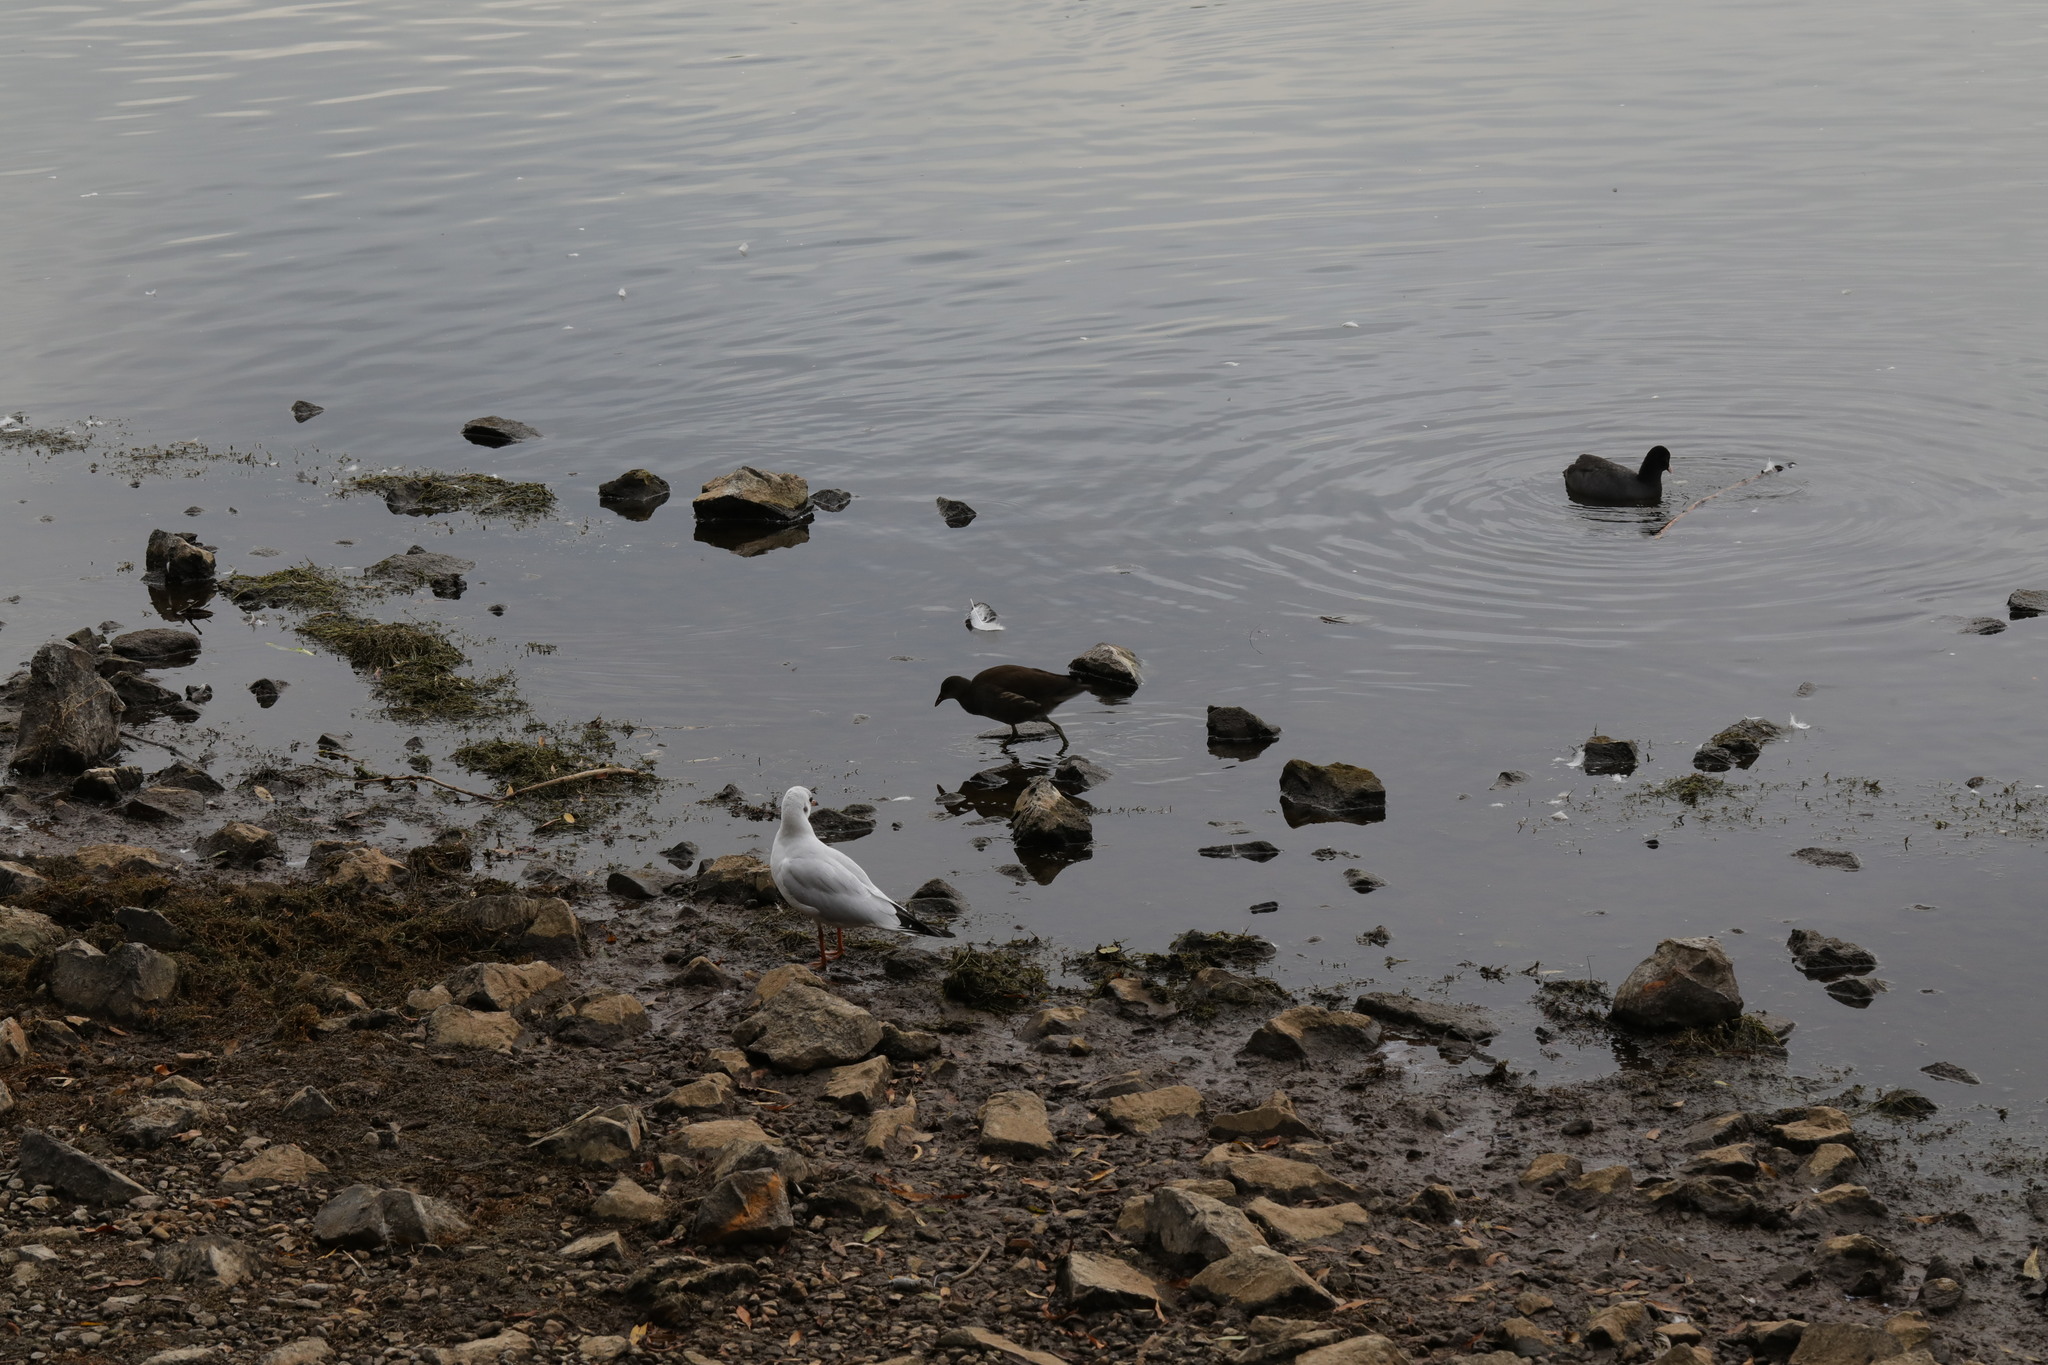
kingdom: Animalia
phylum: Chordata
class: Aves
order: Gruiformes
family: Rallidae
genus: Gallinula
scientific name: Gallinula chloropus
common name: Common moorhen
